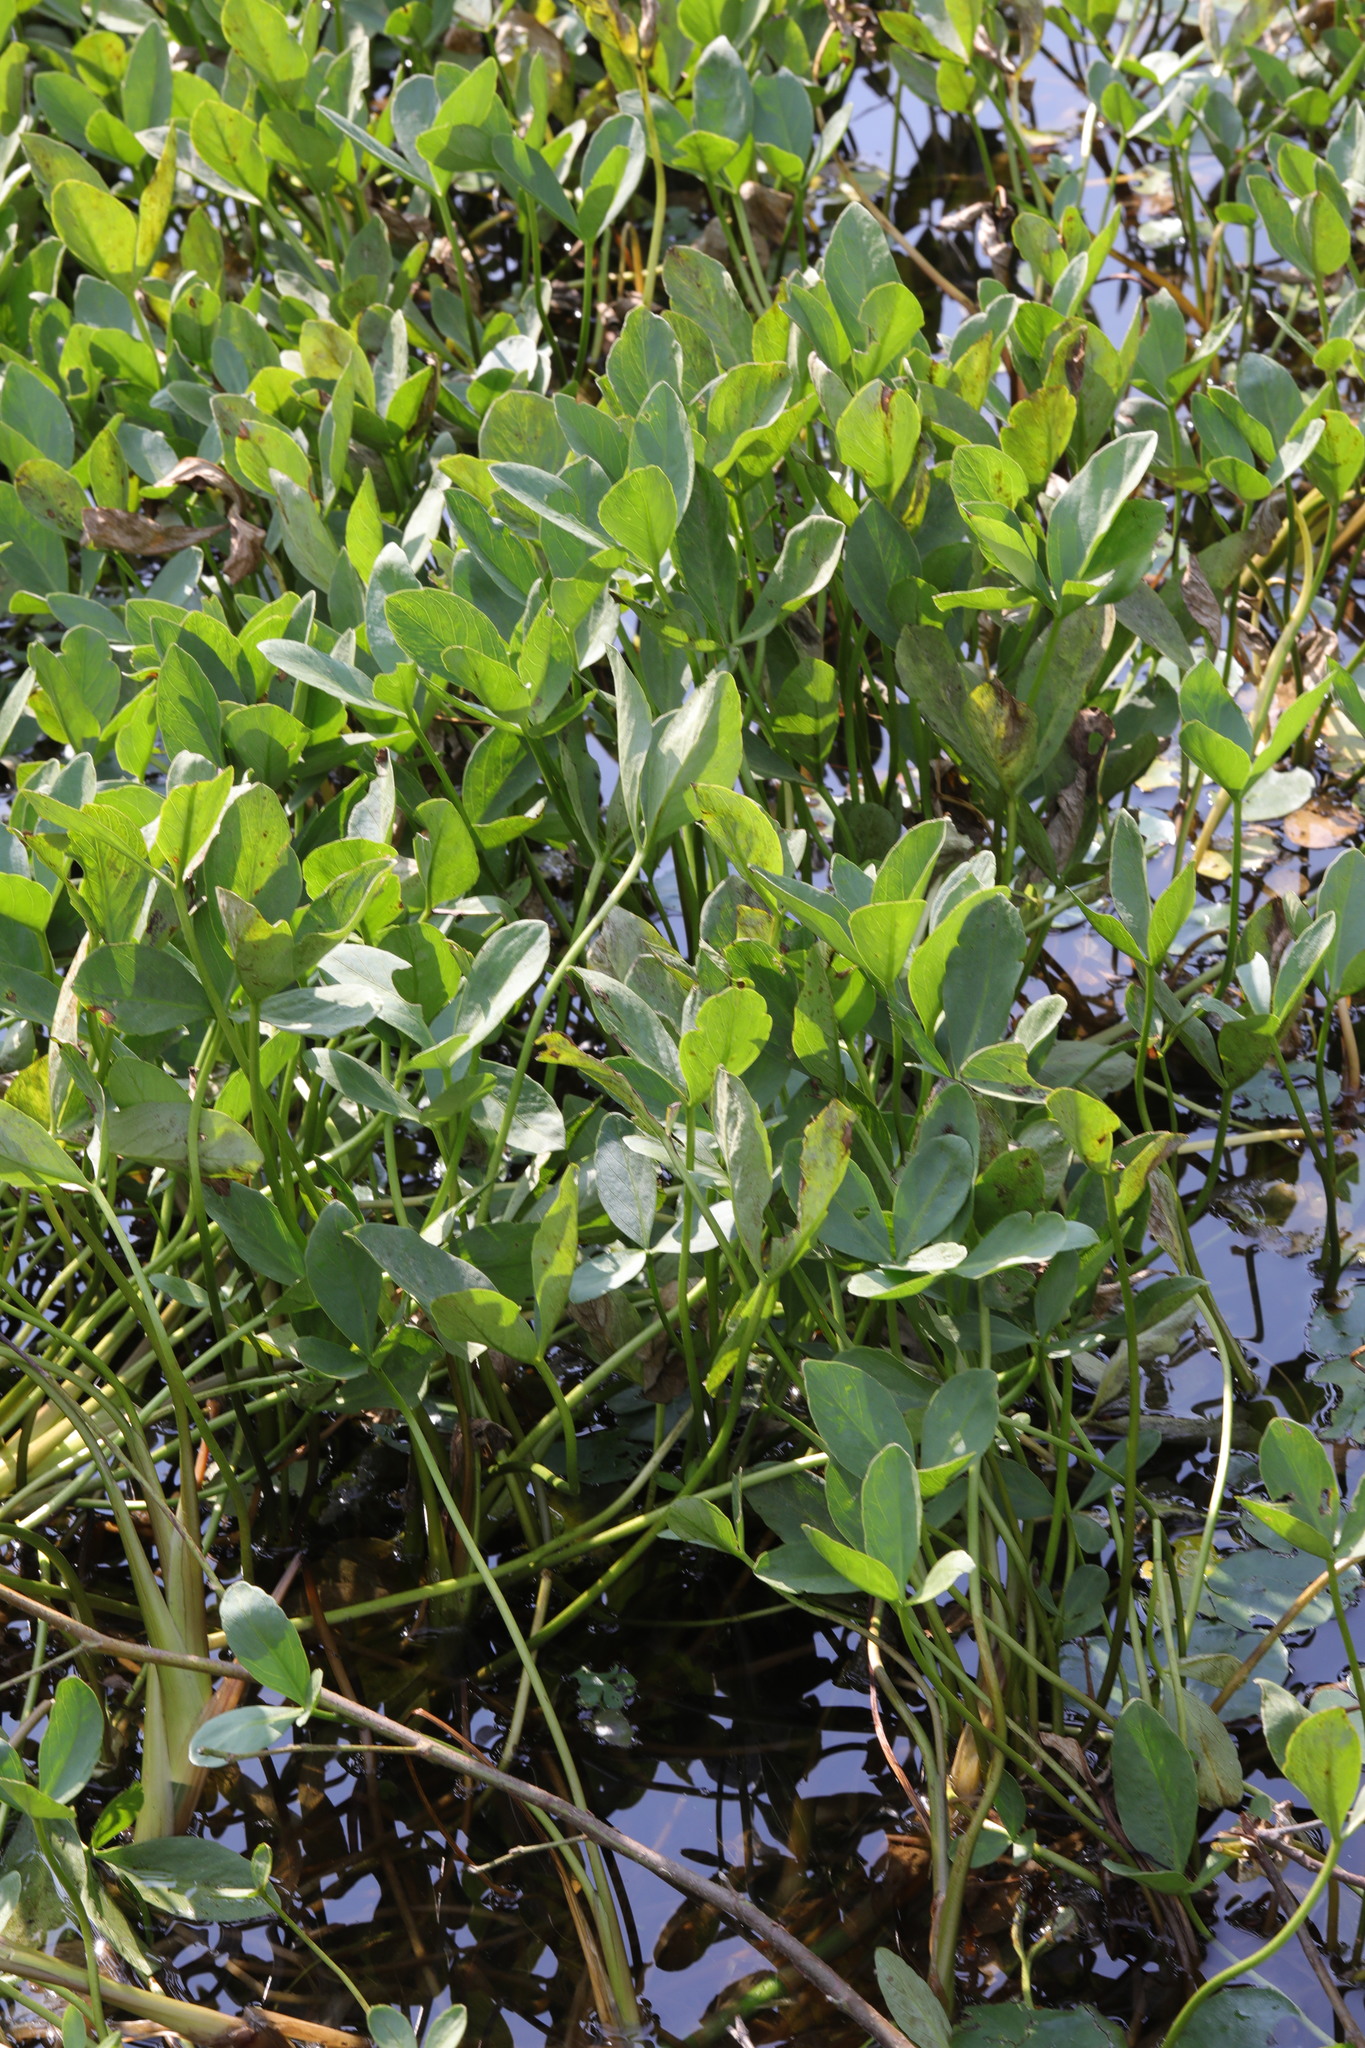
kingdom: Plantae
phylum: Tracheophyta
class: Magnoliopsida
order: Asterales
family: Menyanthaceae
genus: Menyanthes
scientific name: Menyanthes trifoliata
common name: Bogbean
